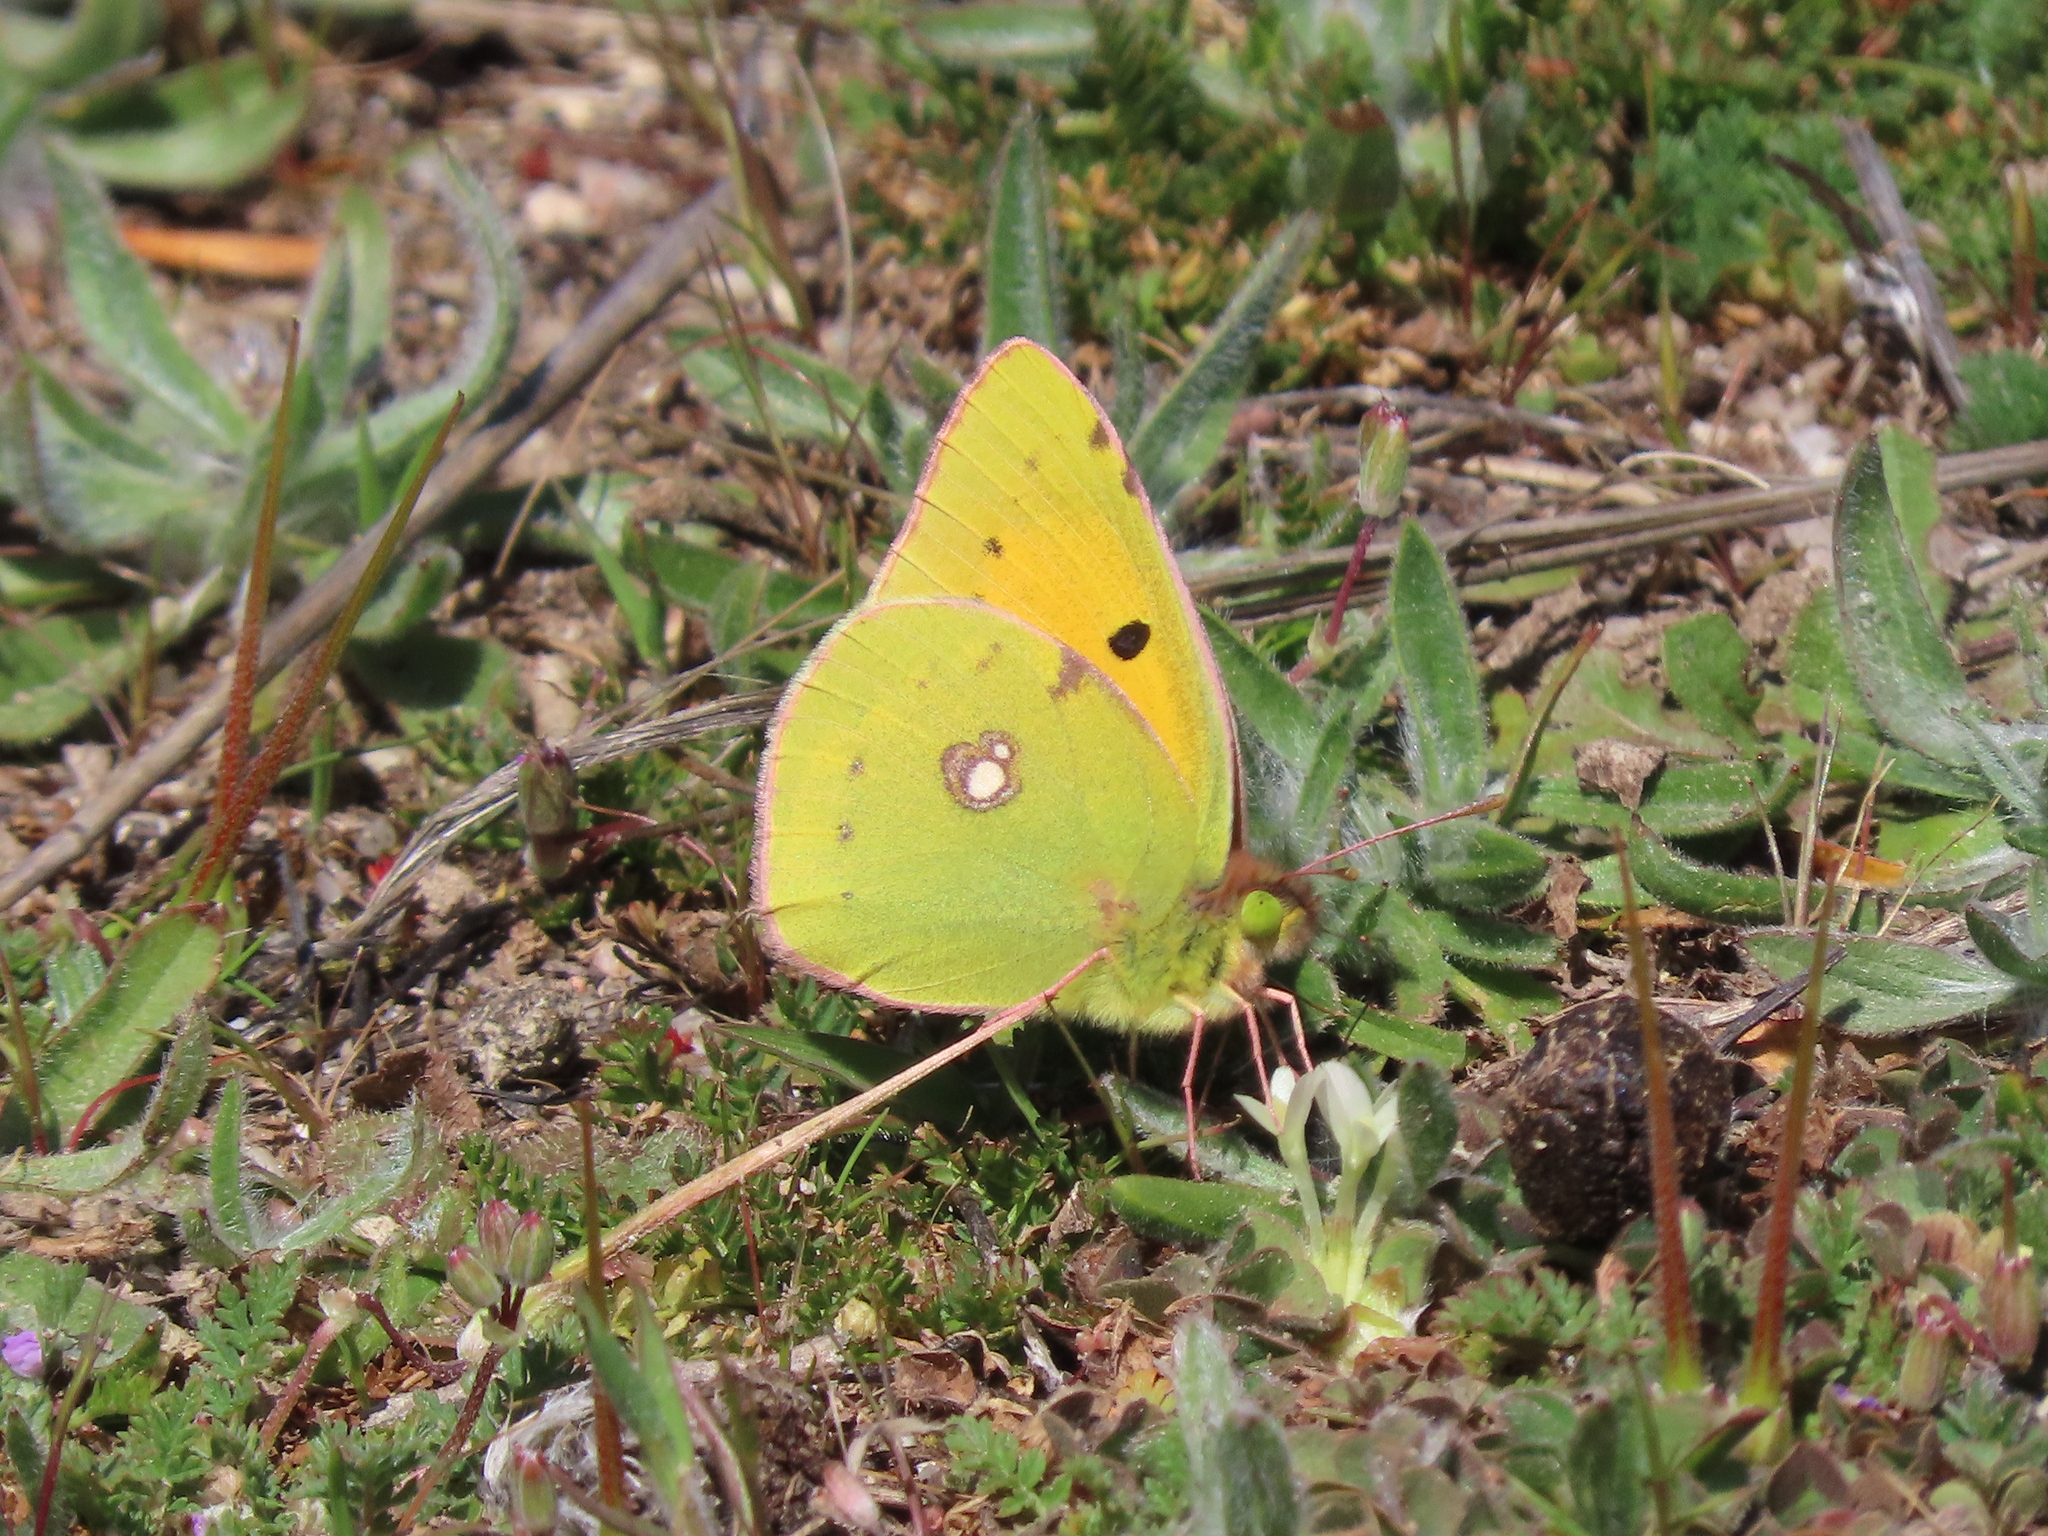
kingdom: Animalia
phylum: Arthropoda
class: Insecta
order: Lepidoptera
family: Pieridae
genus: Colias
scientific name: Colias croceus
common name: Clouded yellow
